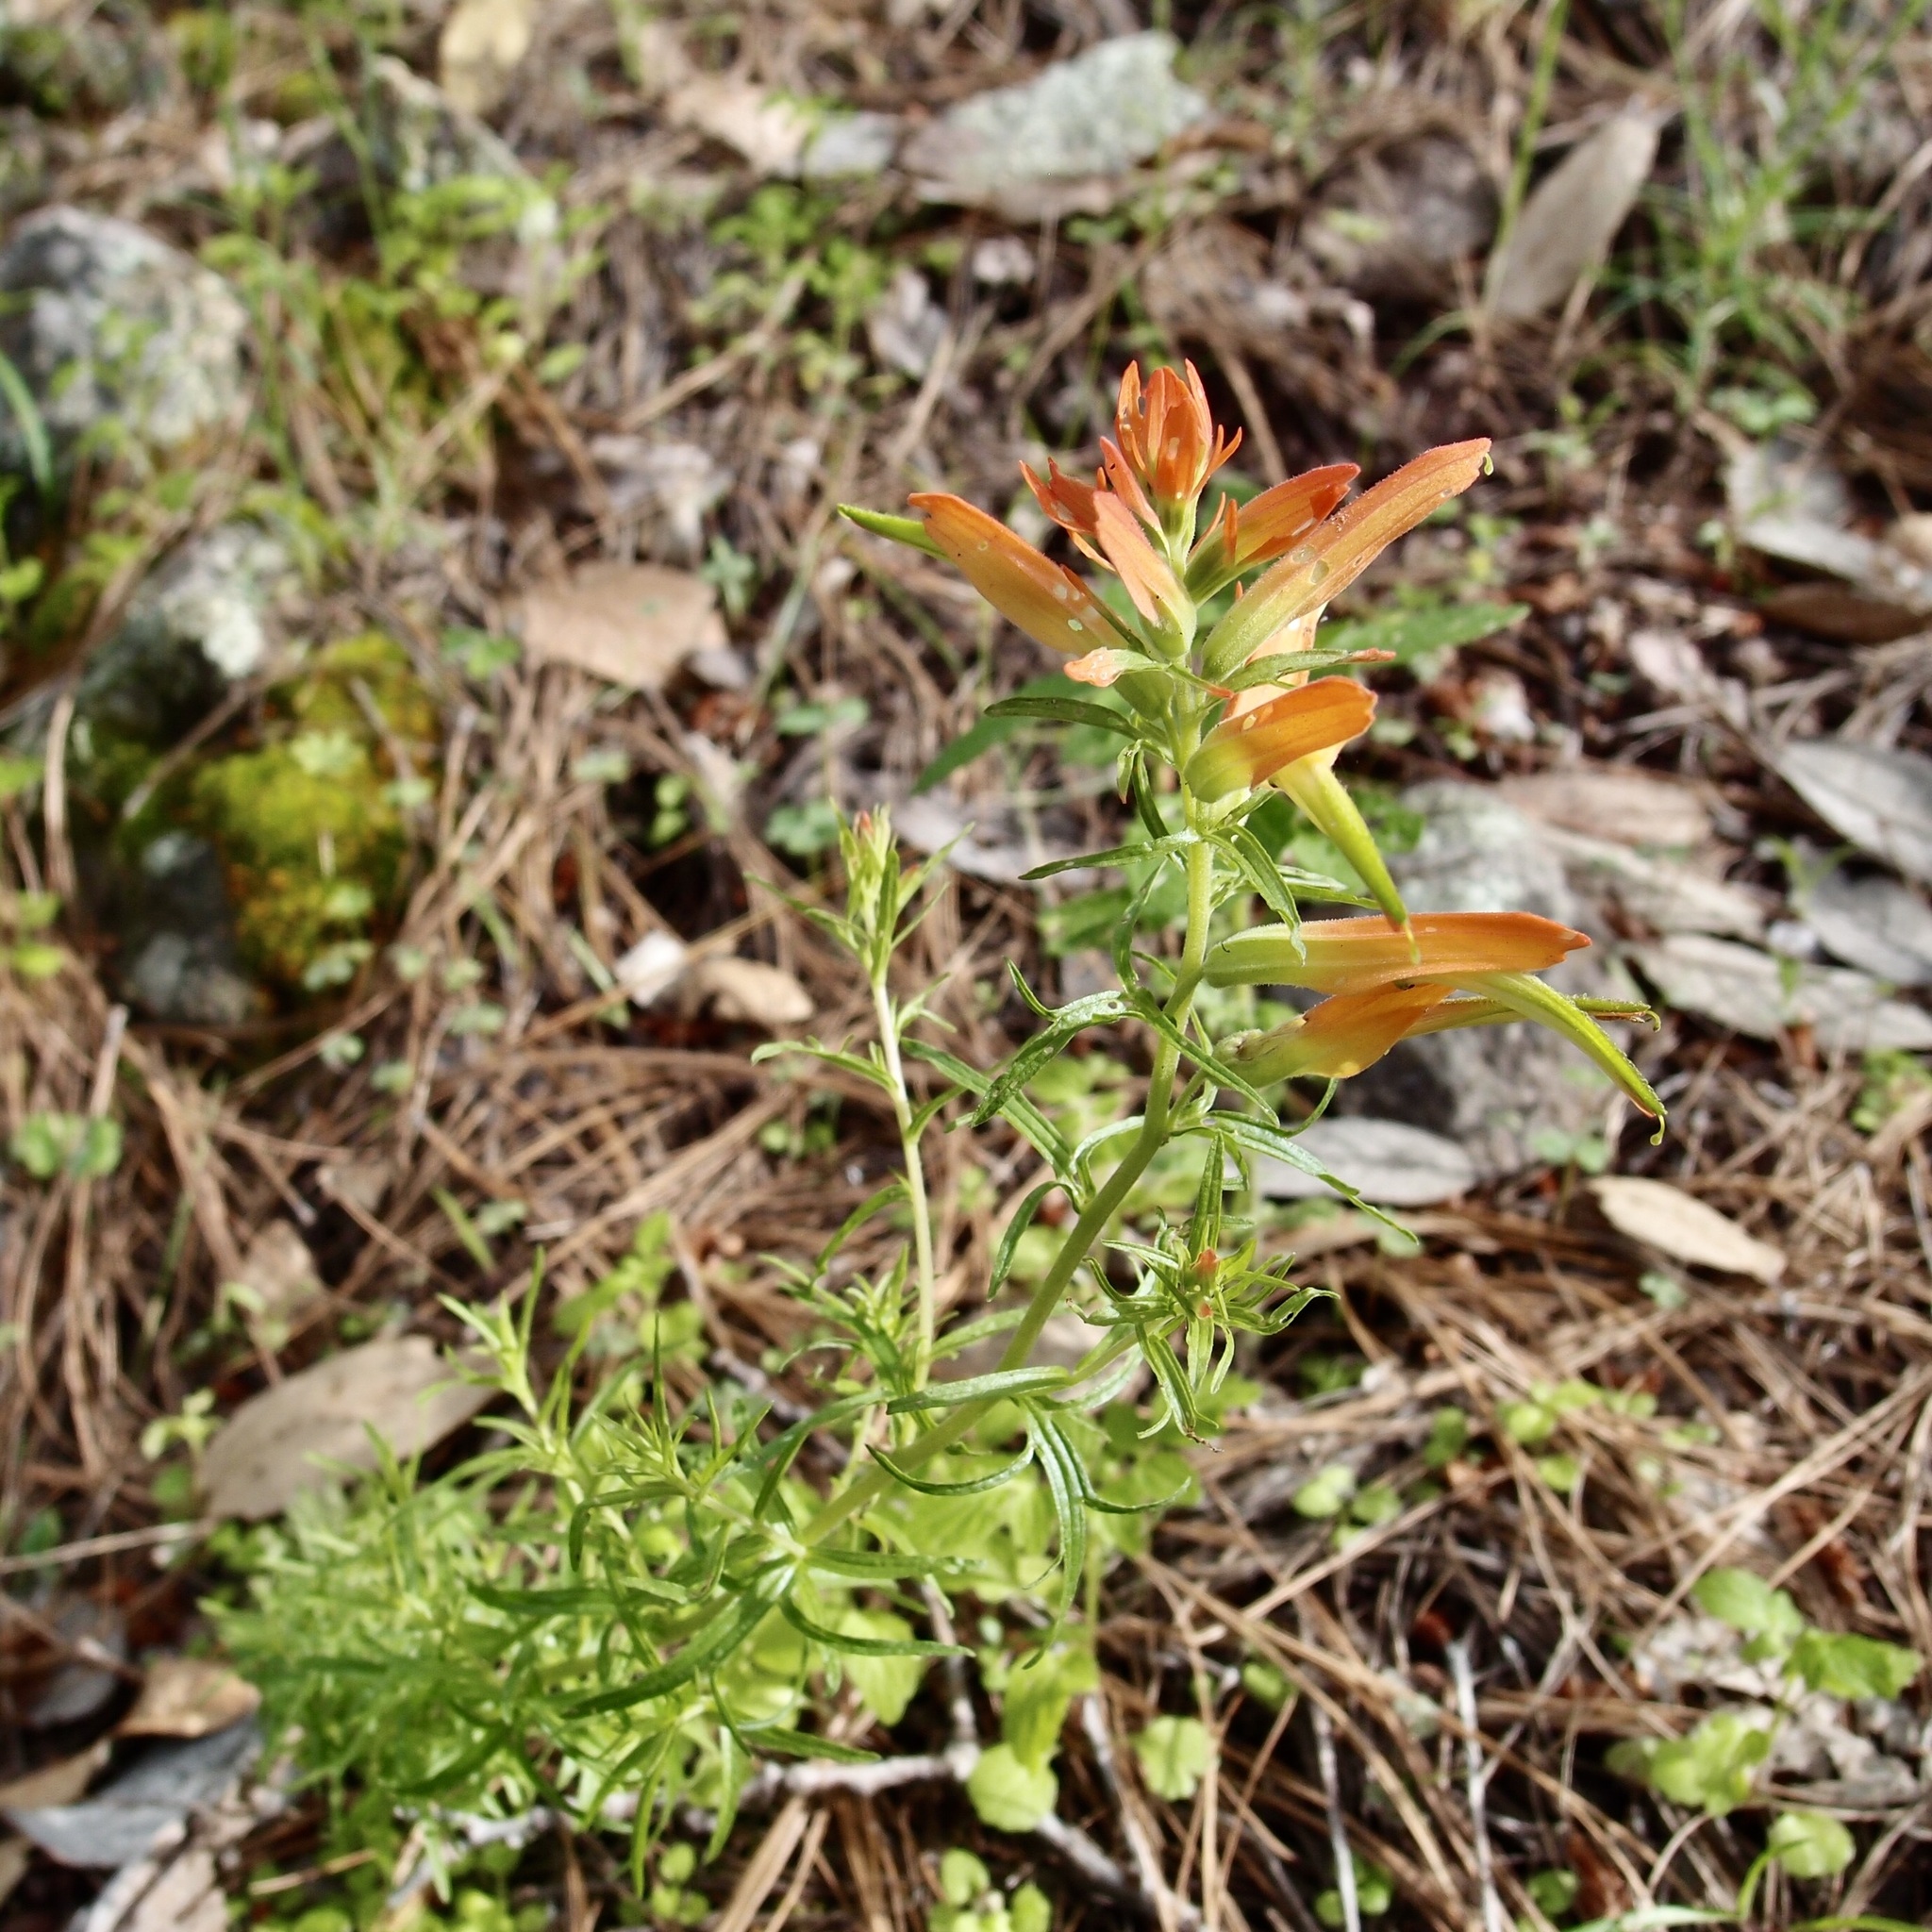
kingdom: Plantae
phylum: Tracheophyta
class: Magnoliopsida
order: Lamiales
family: Orobanchaceae
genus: Castilleja
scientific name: Castilleja patriotica
